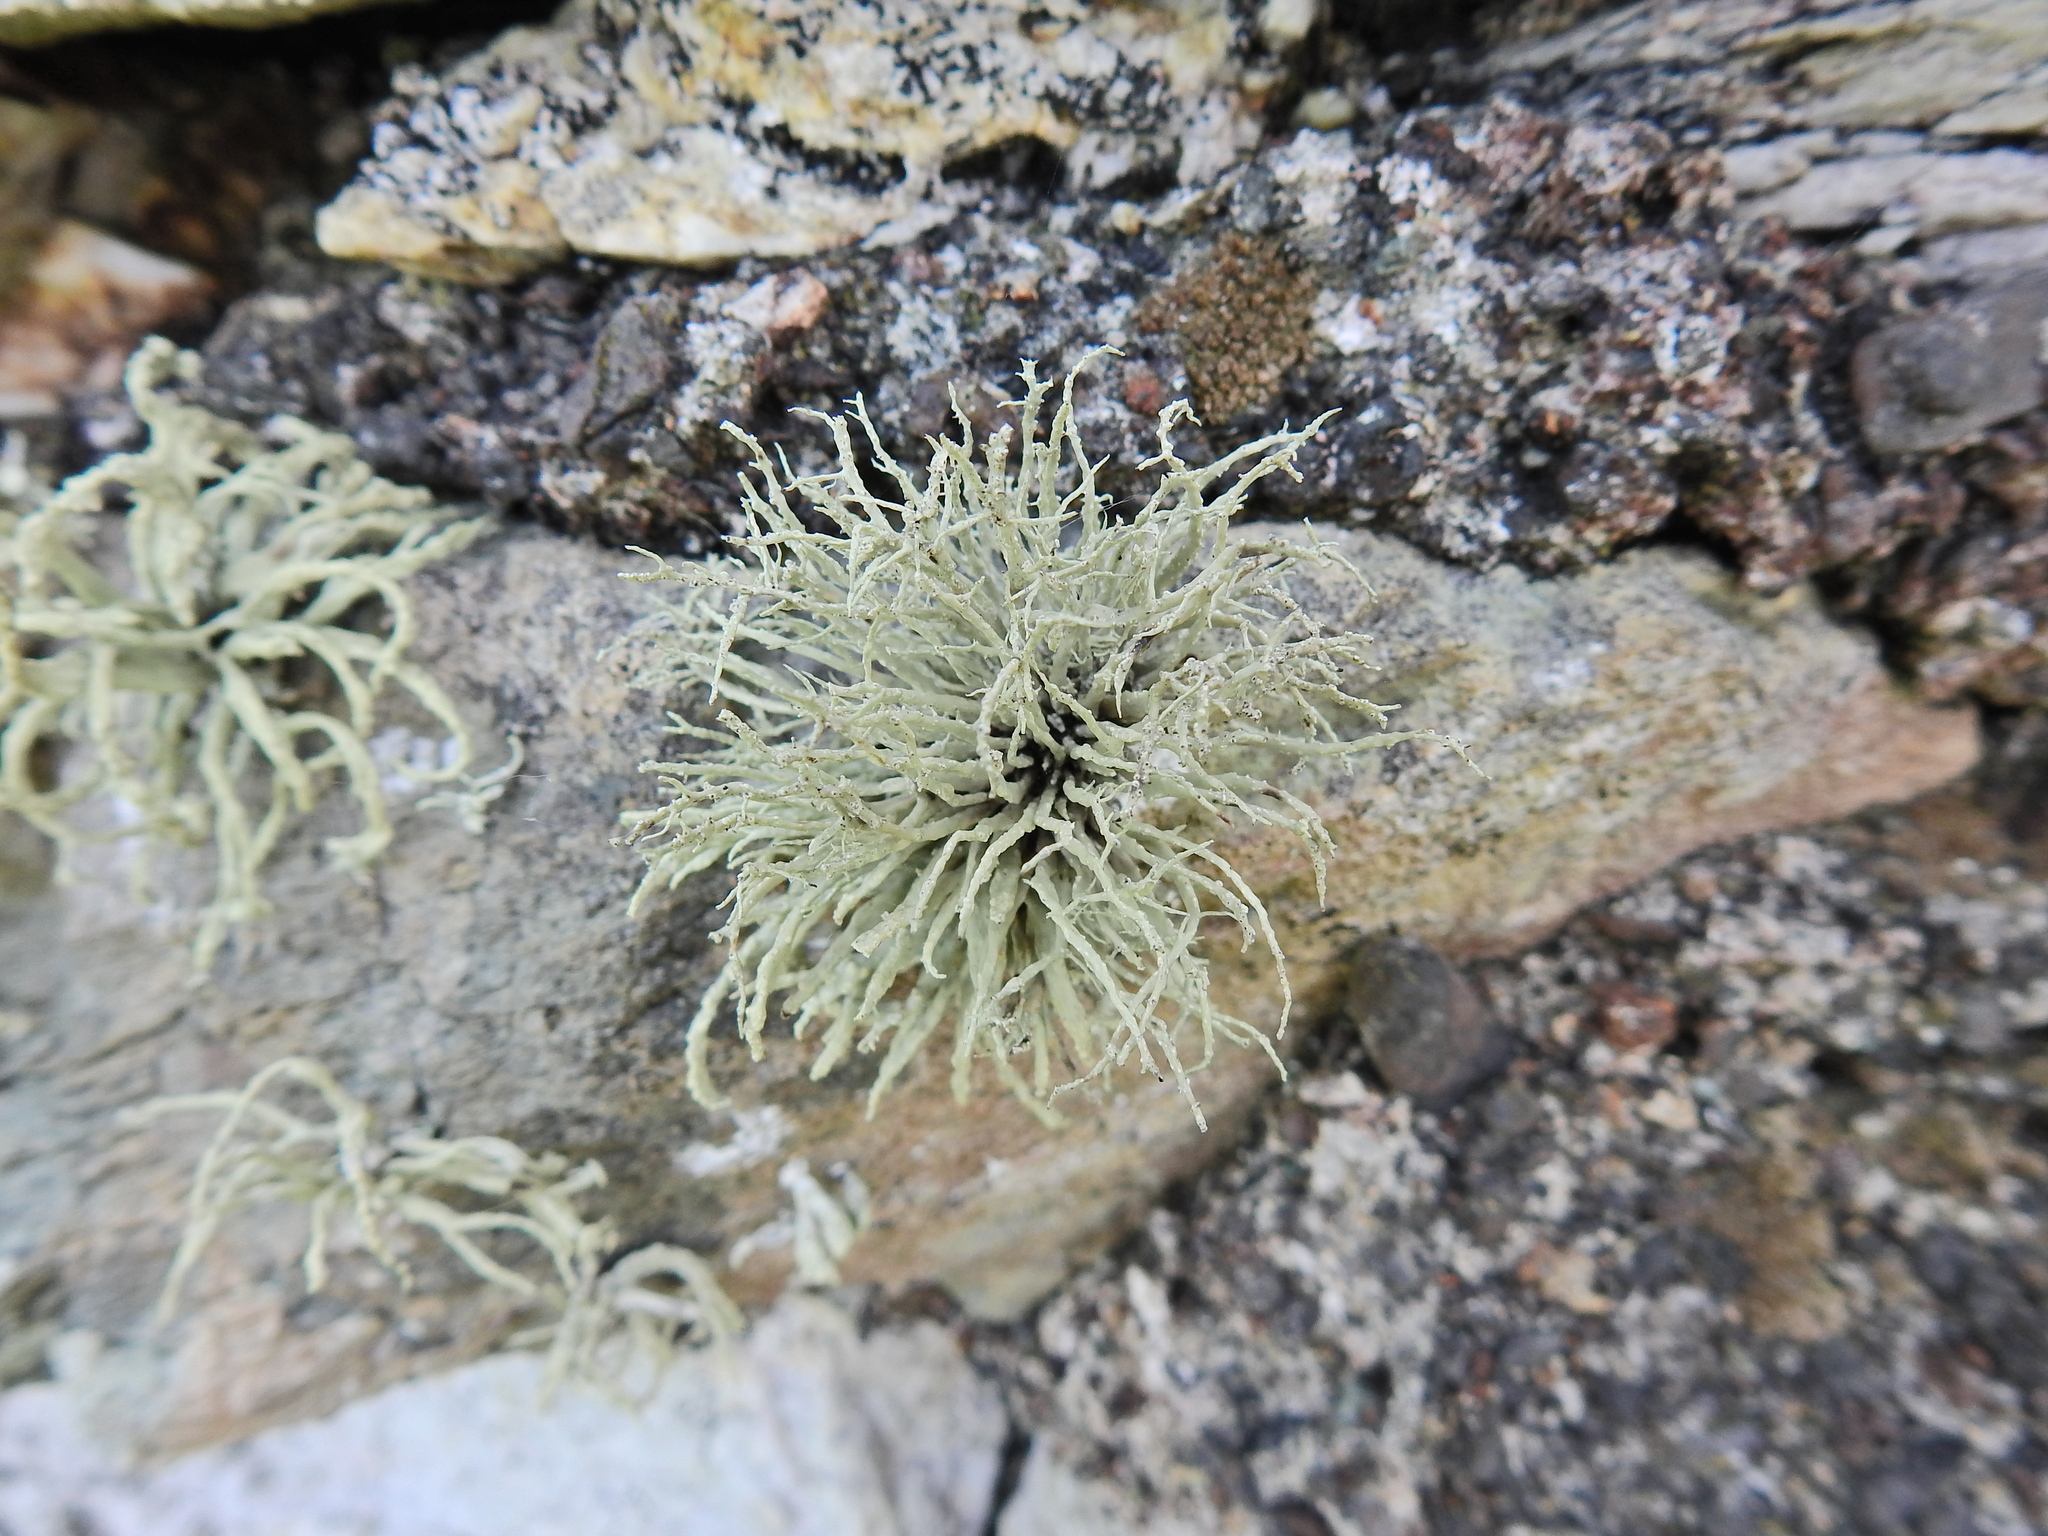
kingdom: Fungi
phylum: Ascomycota
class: Lecanoromycetes
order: Lecanorales
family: Ramalinaceae
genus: Ramalina
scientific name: Ramalina cuspidata
